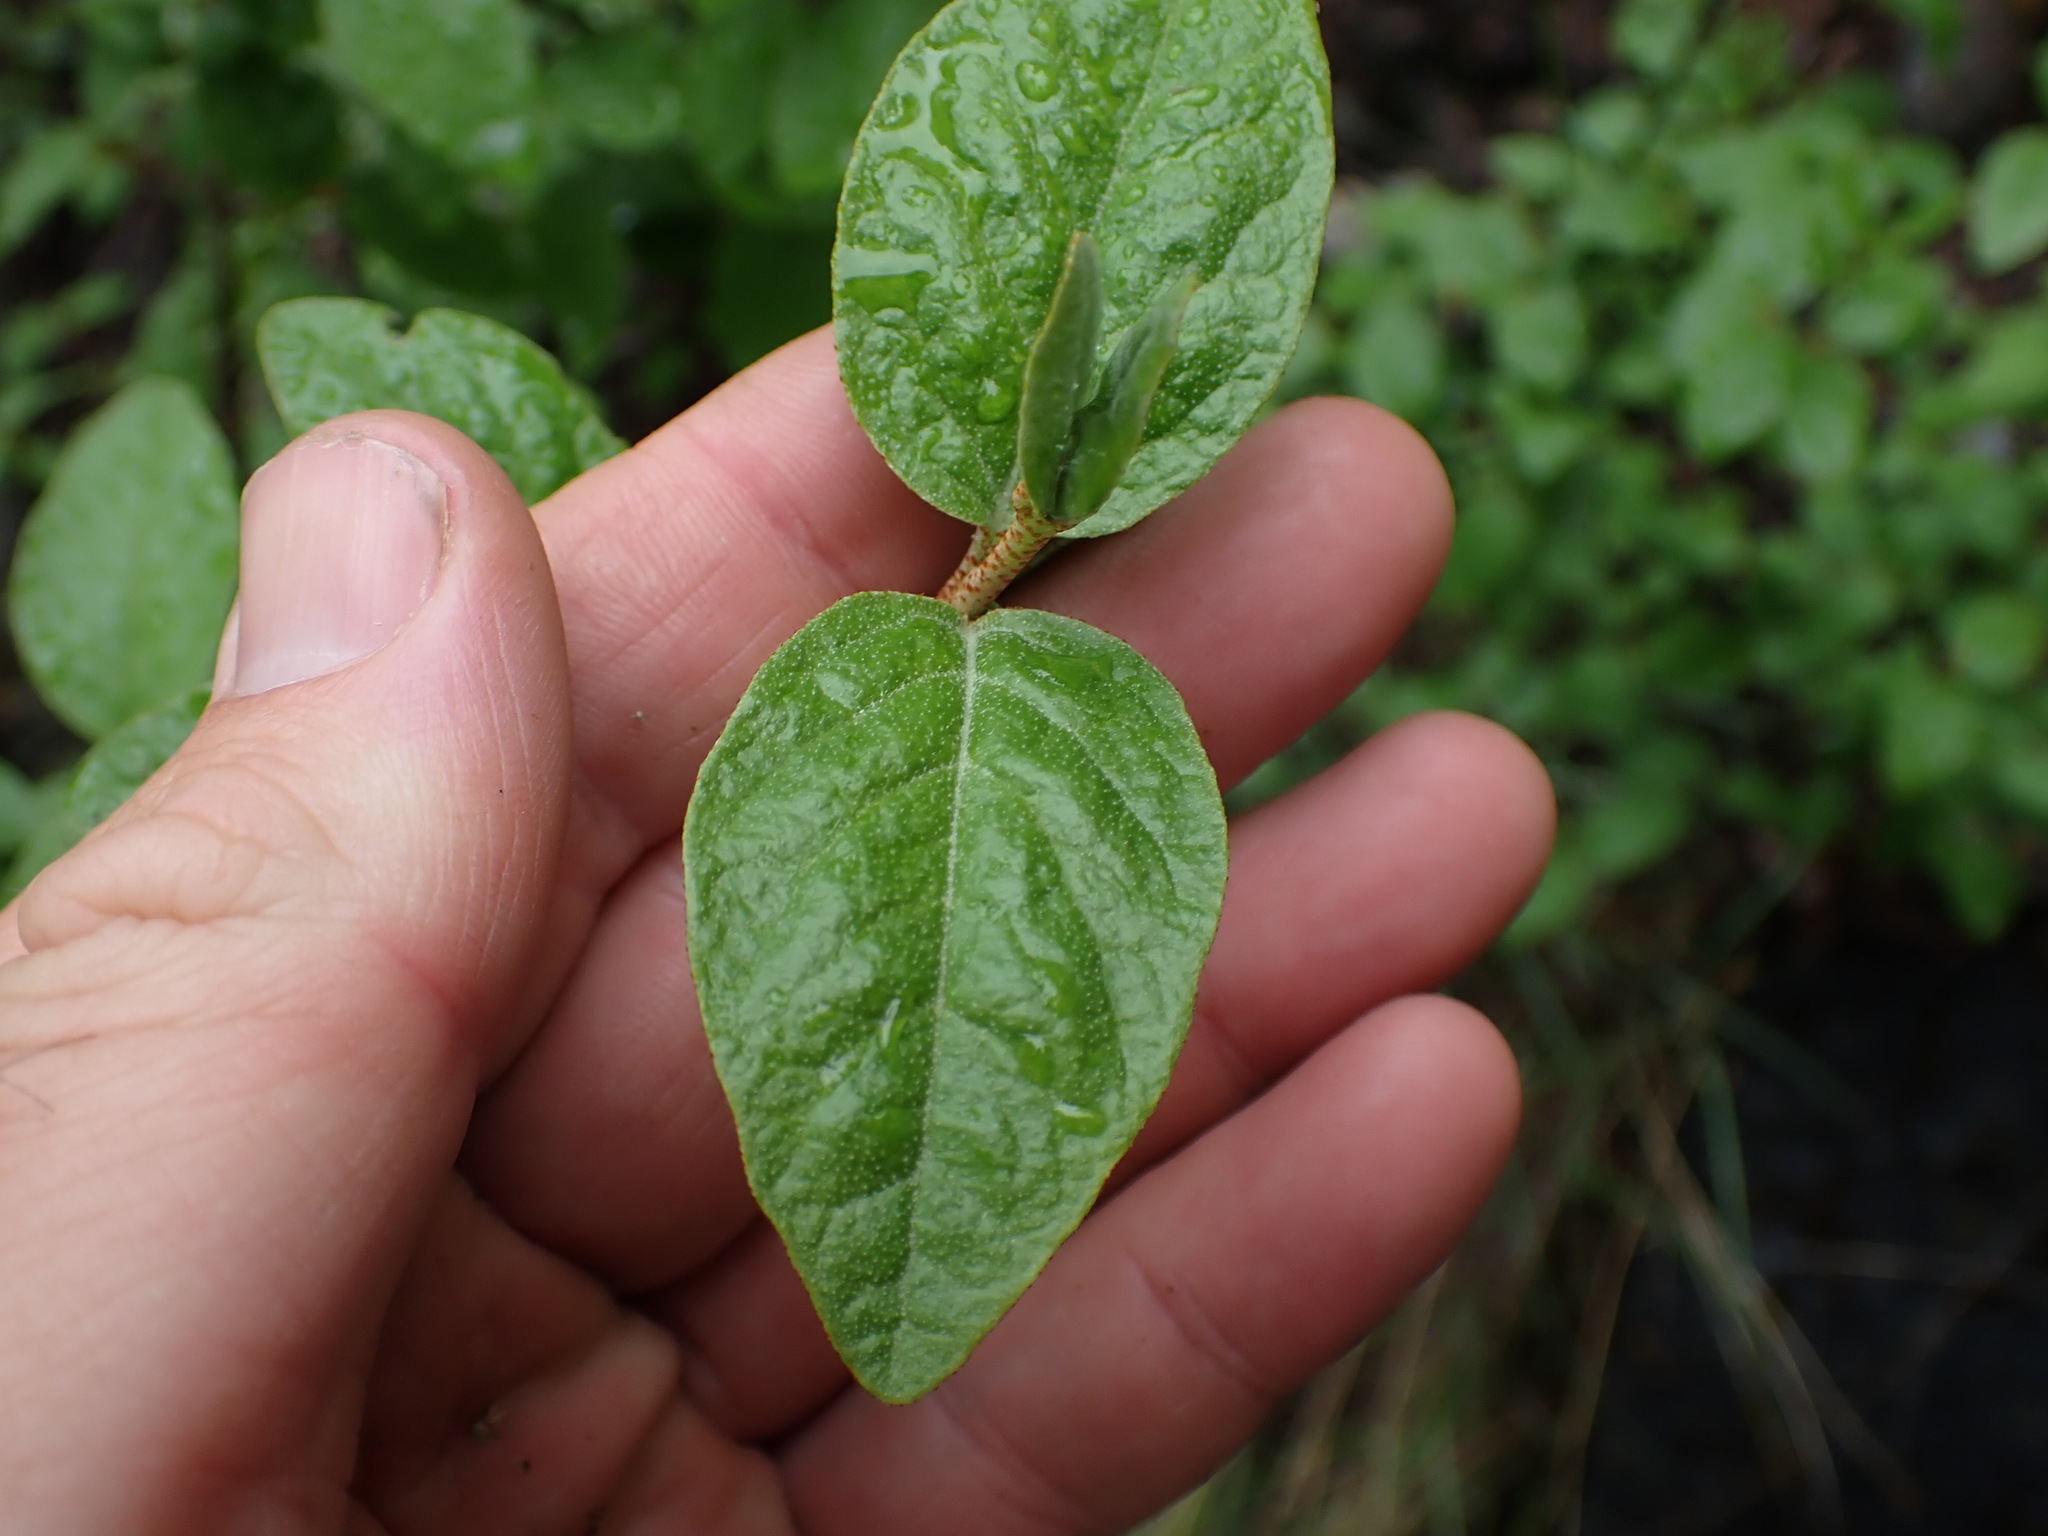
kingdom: Plantae
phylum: Tracheophyta
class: Magnoliopsida
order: Rosales
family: Elaeagnaceae
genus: Shepherdia
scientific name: Shepherdia canadensis
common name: Soapberry
